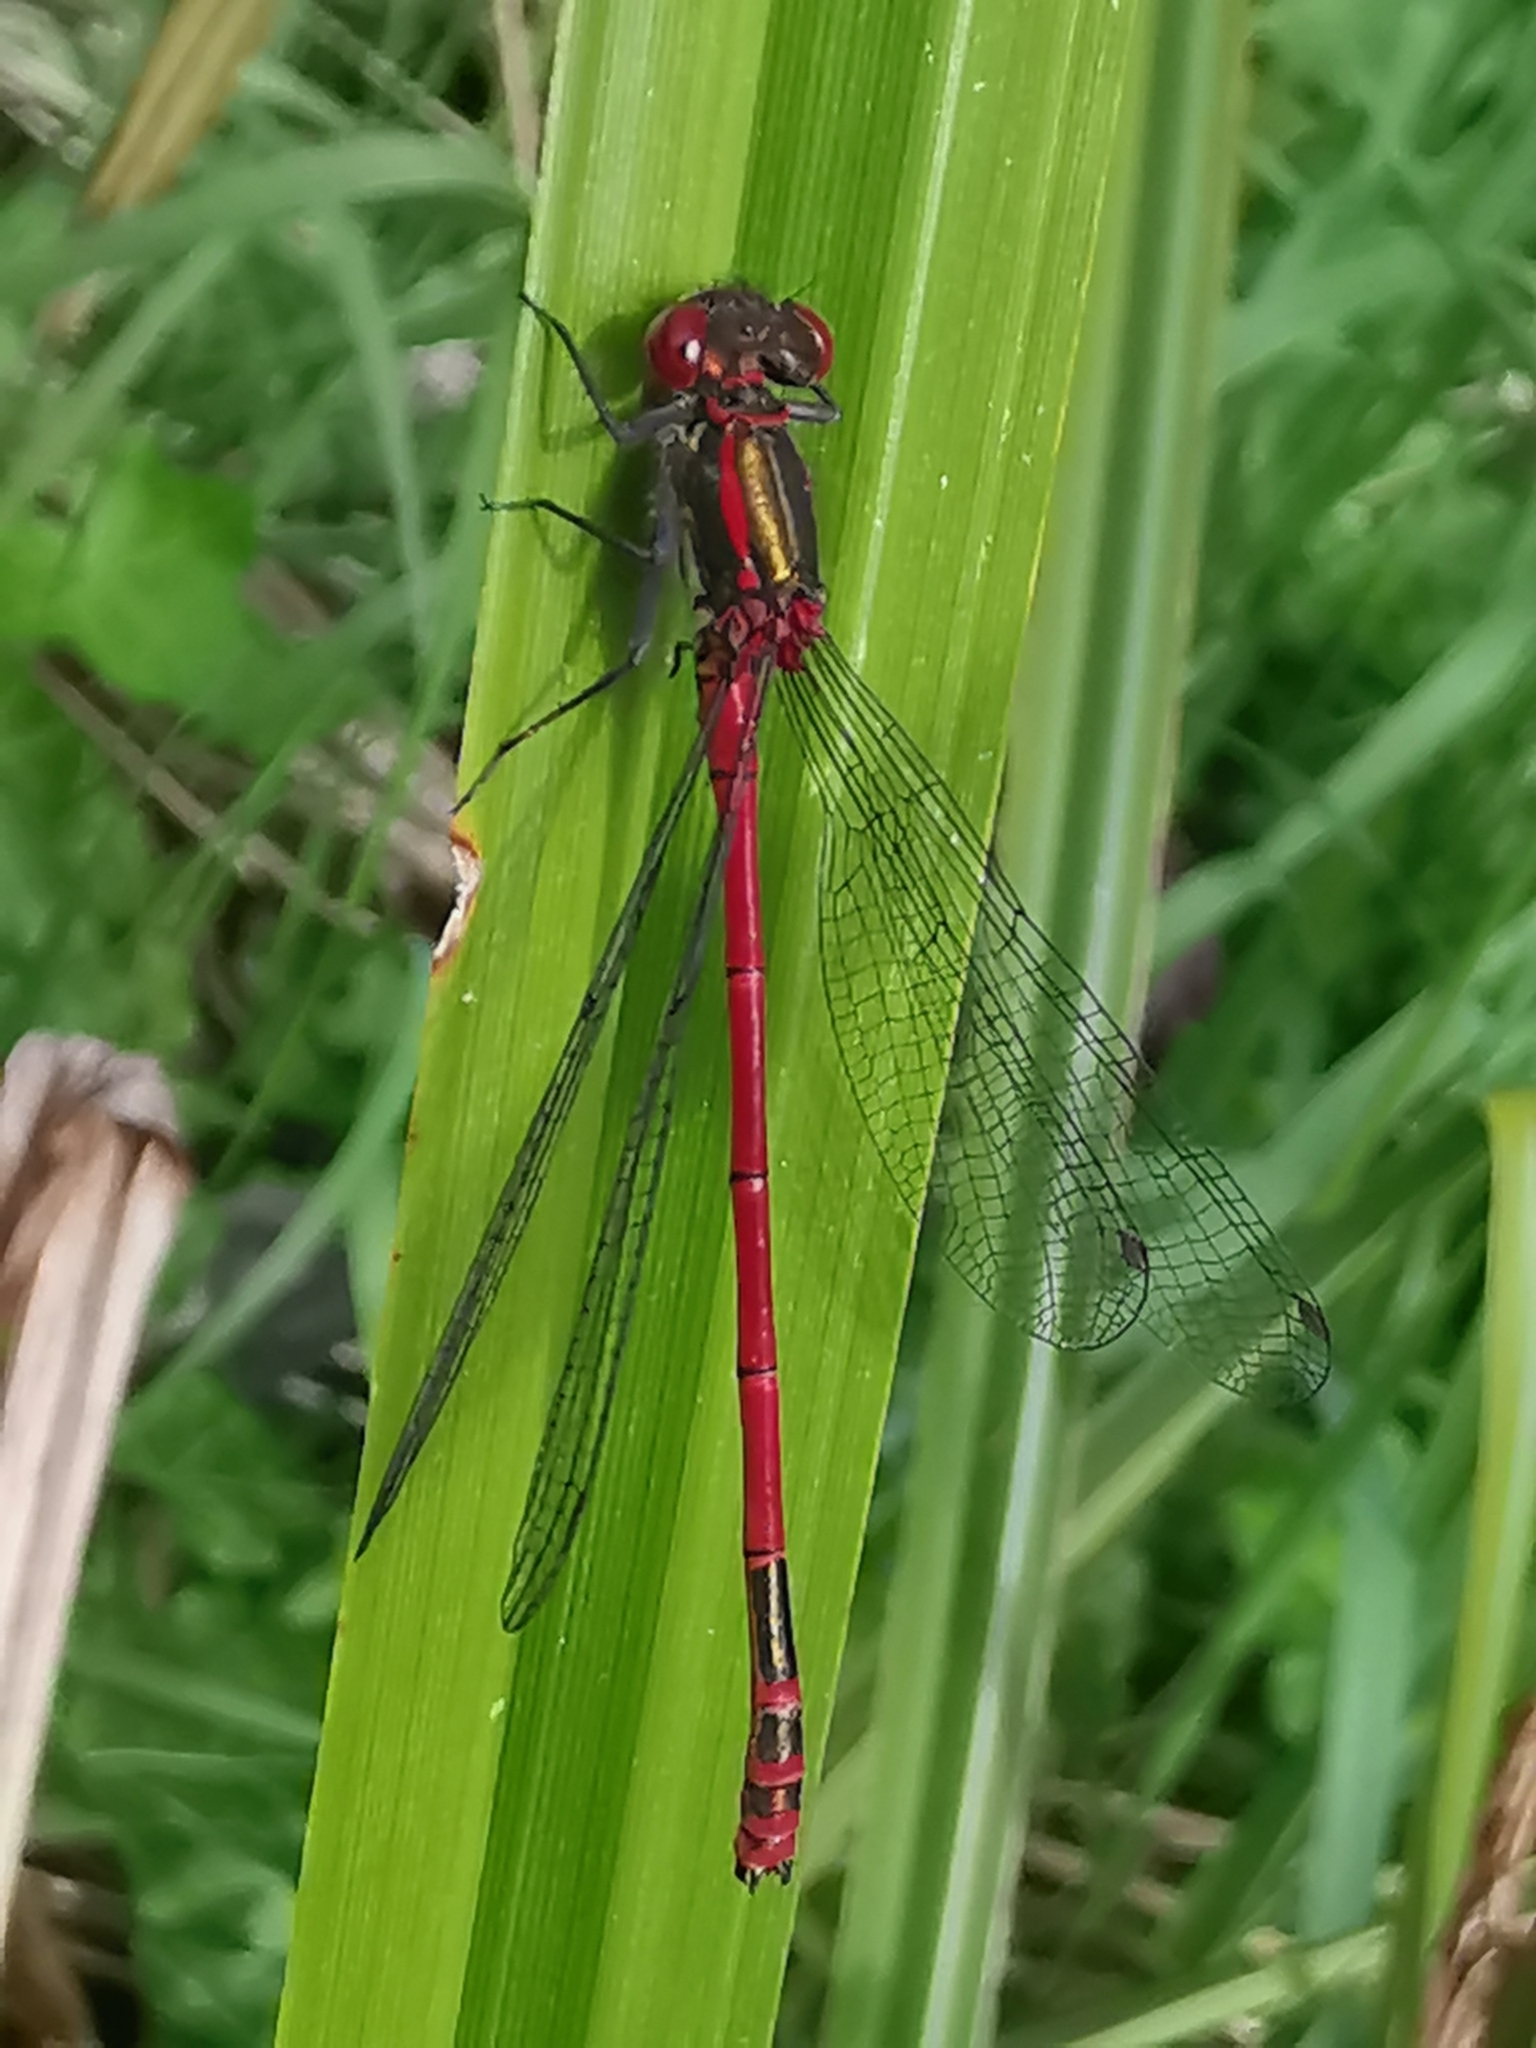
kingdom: Animalia
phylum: Arthropoda
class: Insecta
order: Odonata
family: Coenagrionidae
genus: Pyrrhosoma
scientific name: Pyrrhosoma nymphula
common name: Large red damsel
